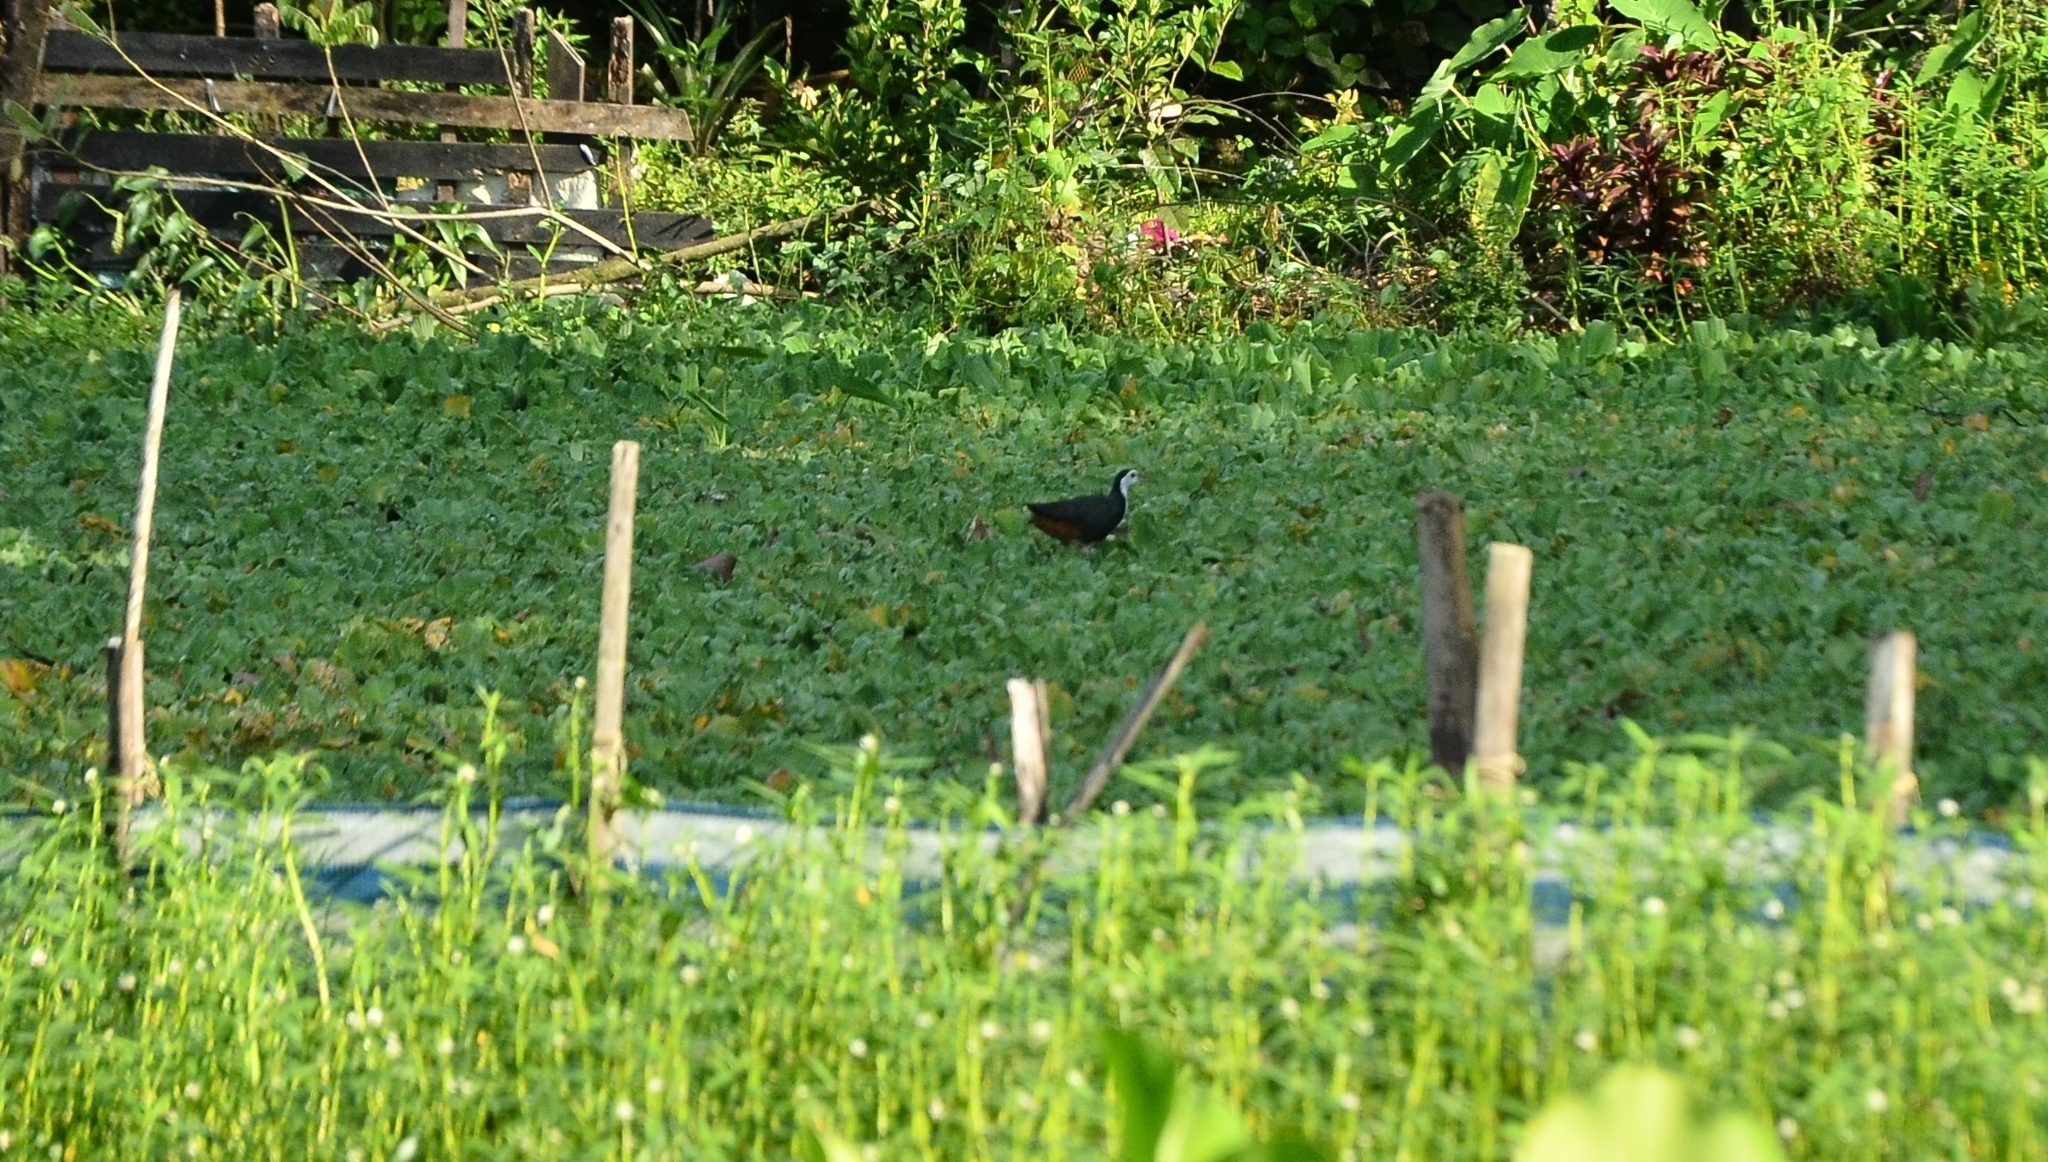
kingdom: Animalia
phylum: Chordata
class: Aves
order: Gruiformes
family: Rallidae
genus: Amaurornis
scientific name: Amaurornis phoenicurus
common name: White-breasted waterhen
